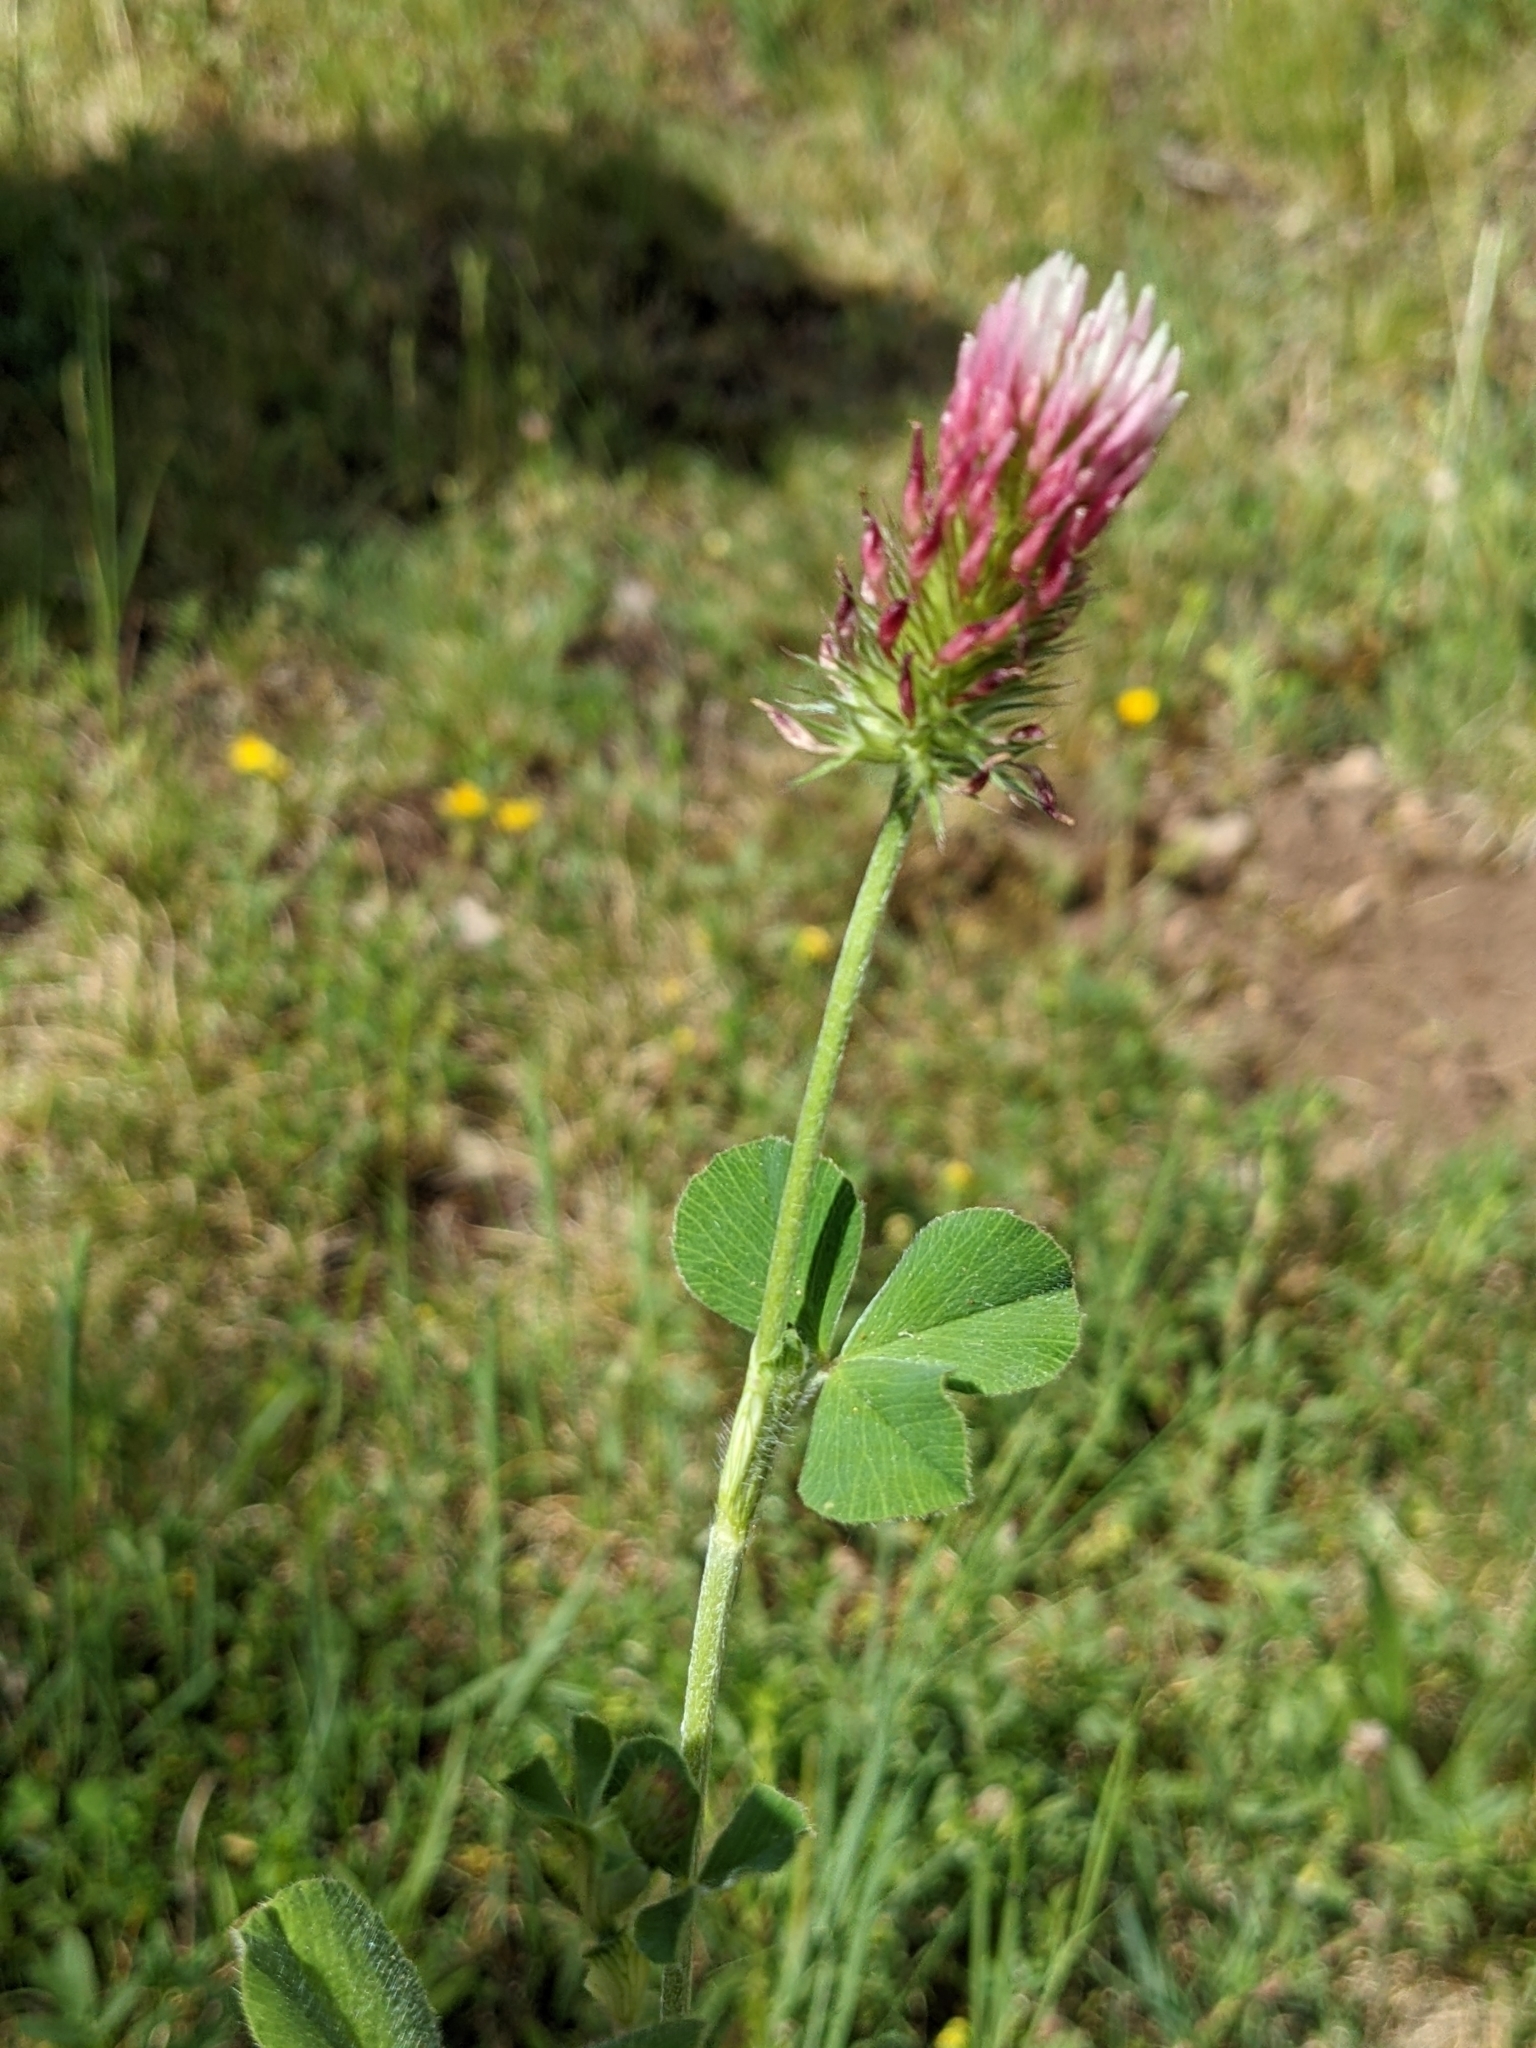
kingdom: Plantae
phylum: Tracheophyta
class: Magnoliopsida
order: Fabales
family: Fabaceae
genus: Trifolium
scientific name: Trifolium incarnatum
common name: Crimson clover
